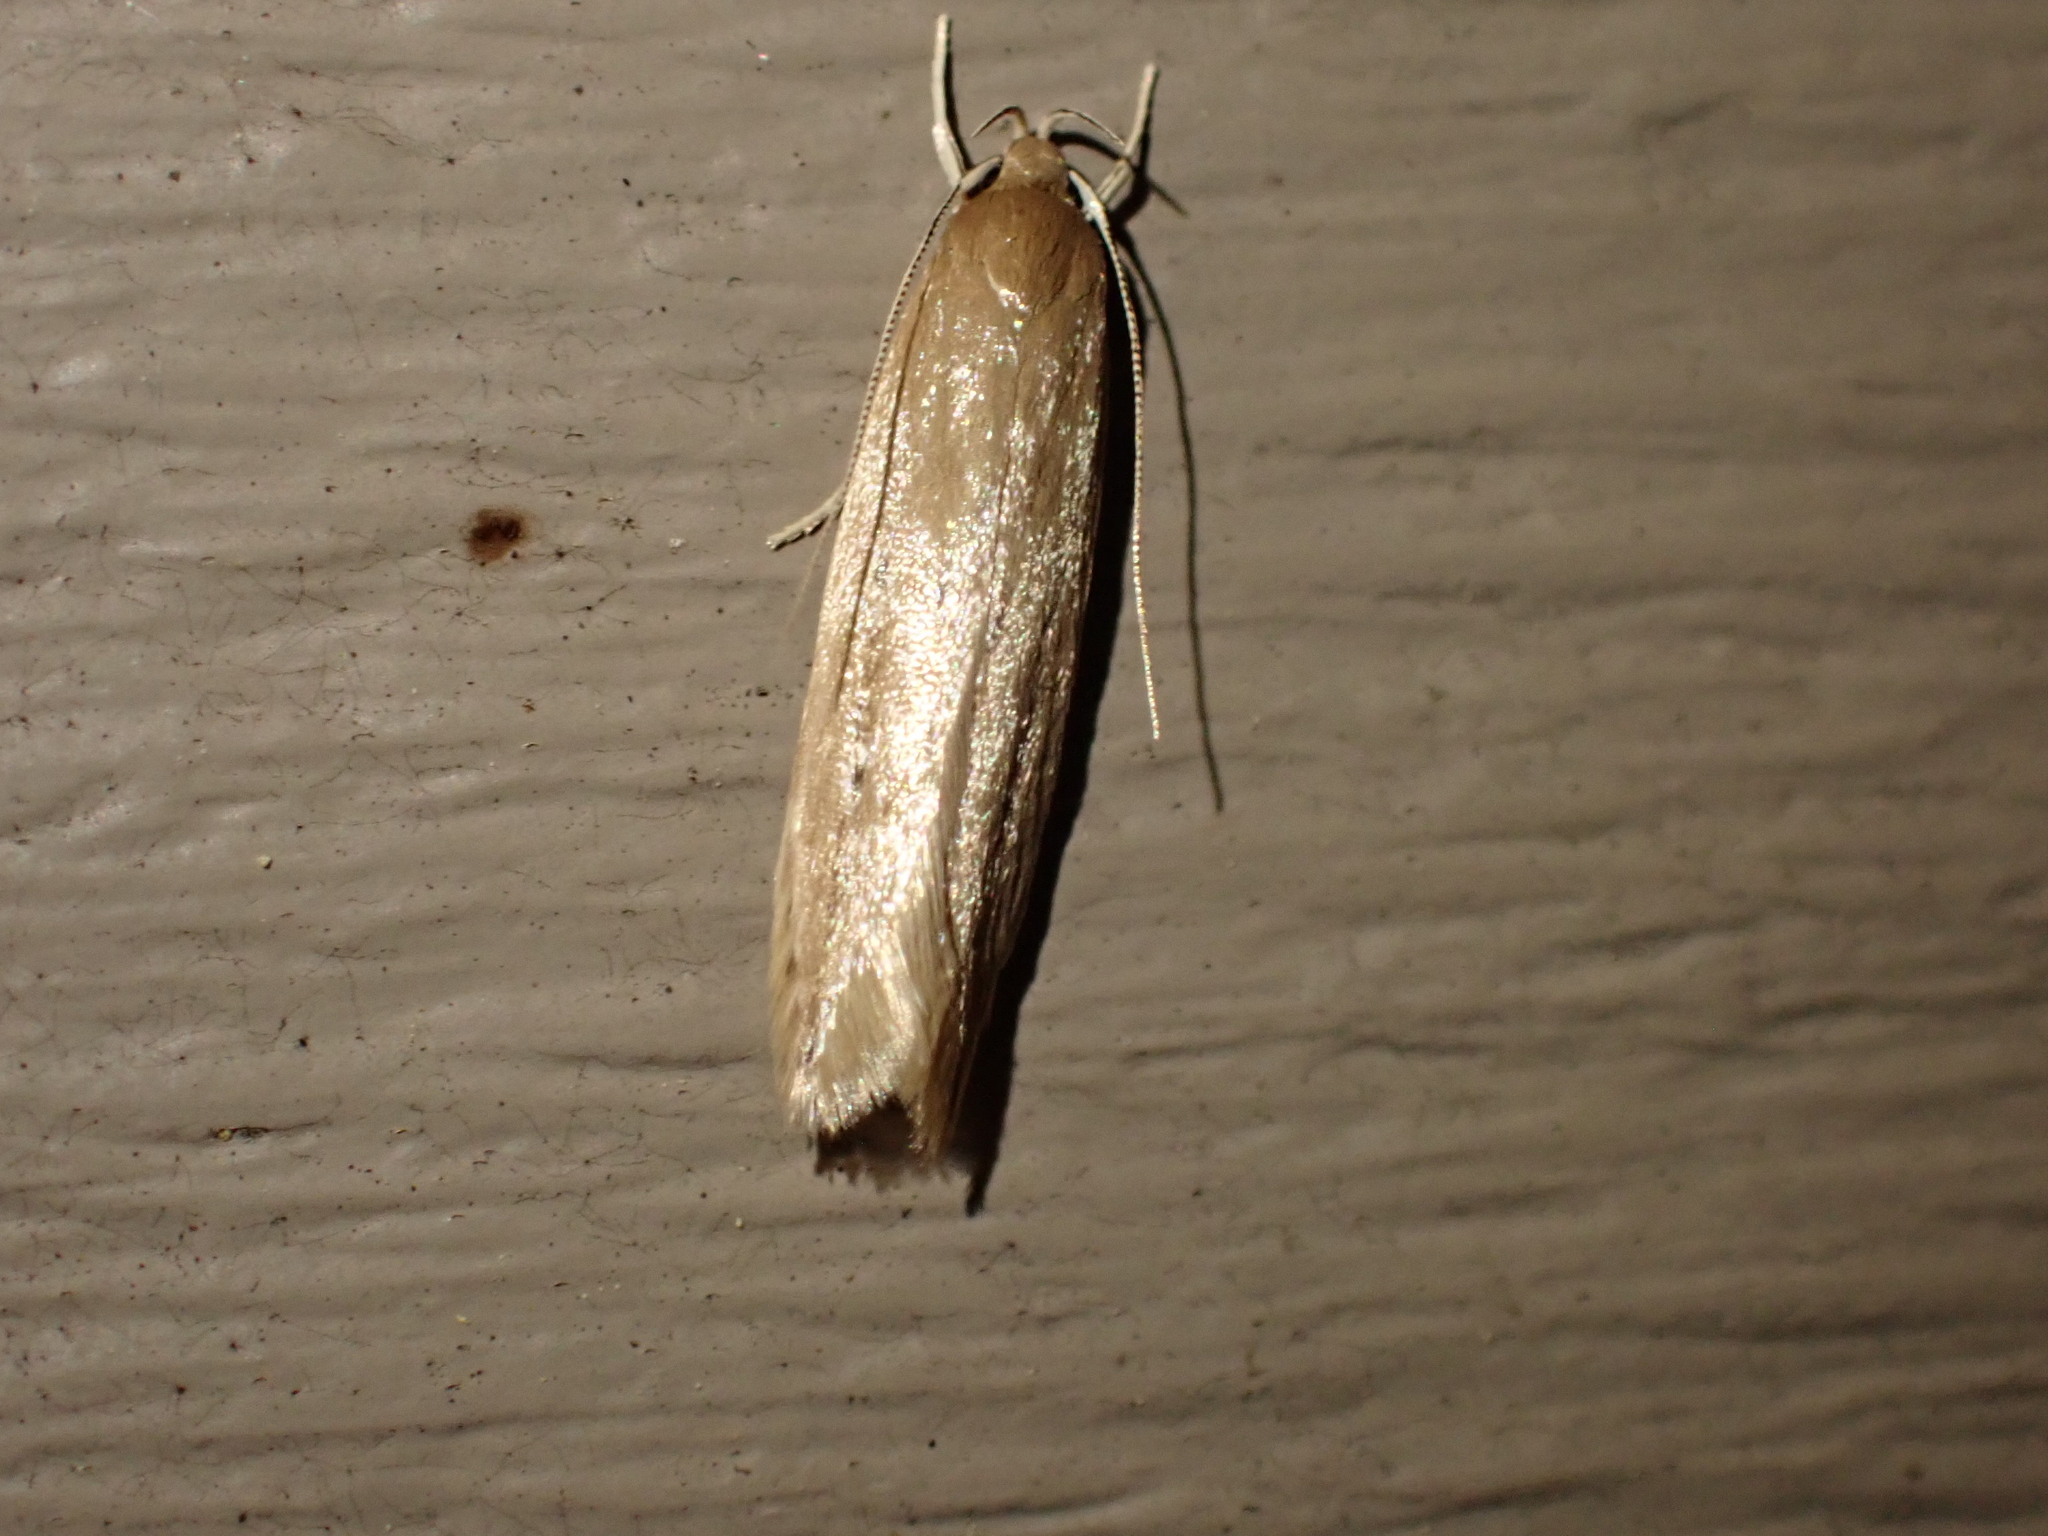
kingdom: Animalia
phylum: Arthropoda
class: Insecta
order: Lepidoptera
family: Cosmopterigidae
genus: Limnaecia
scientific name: Limnaecia phragmitella
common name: Bulrush cosmet
